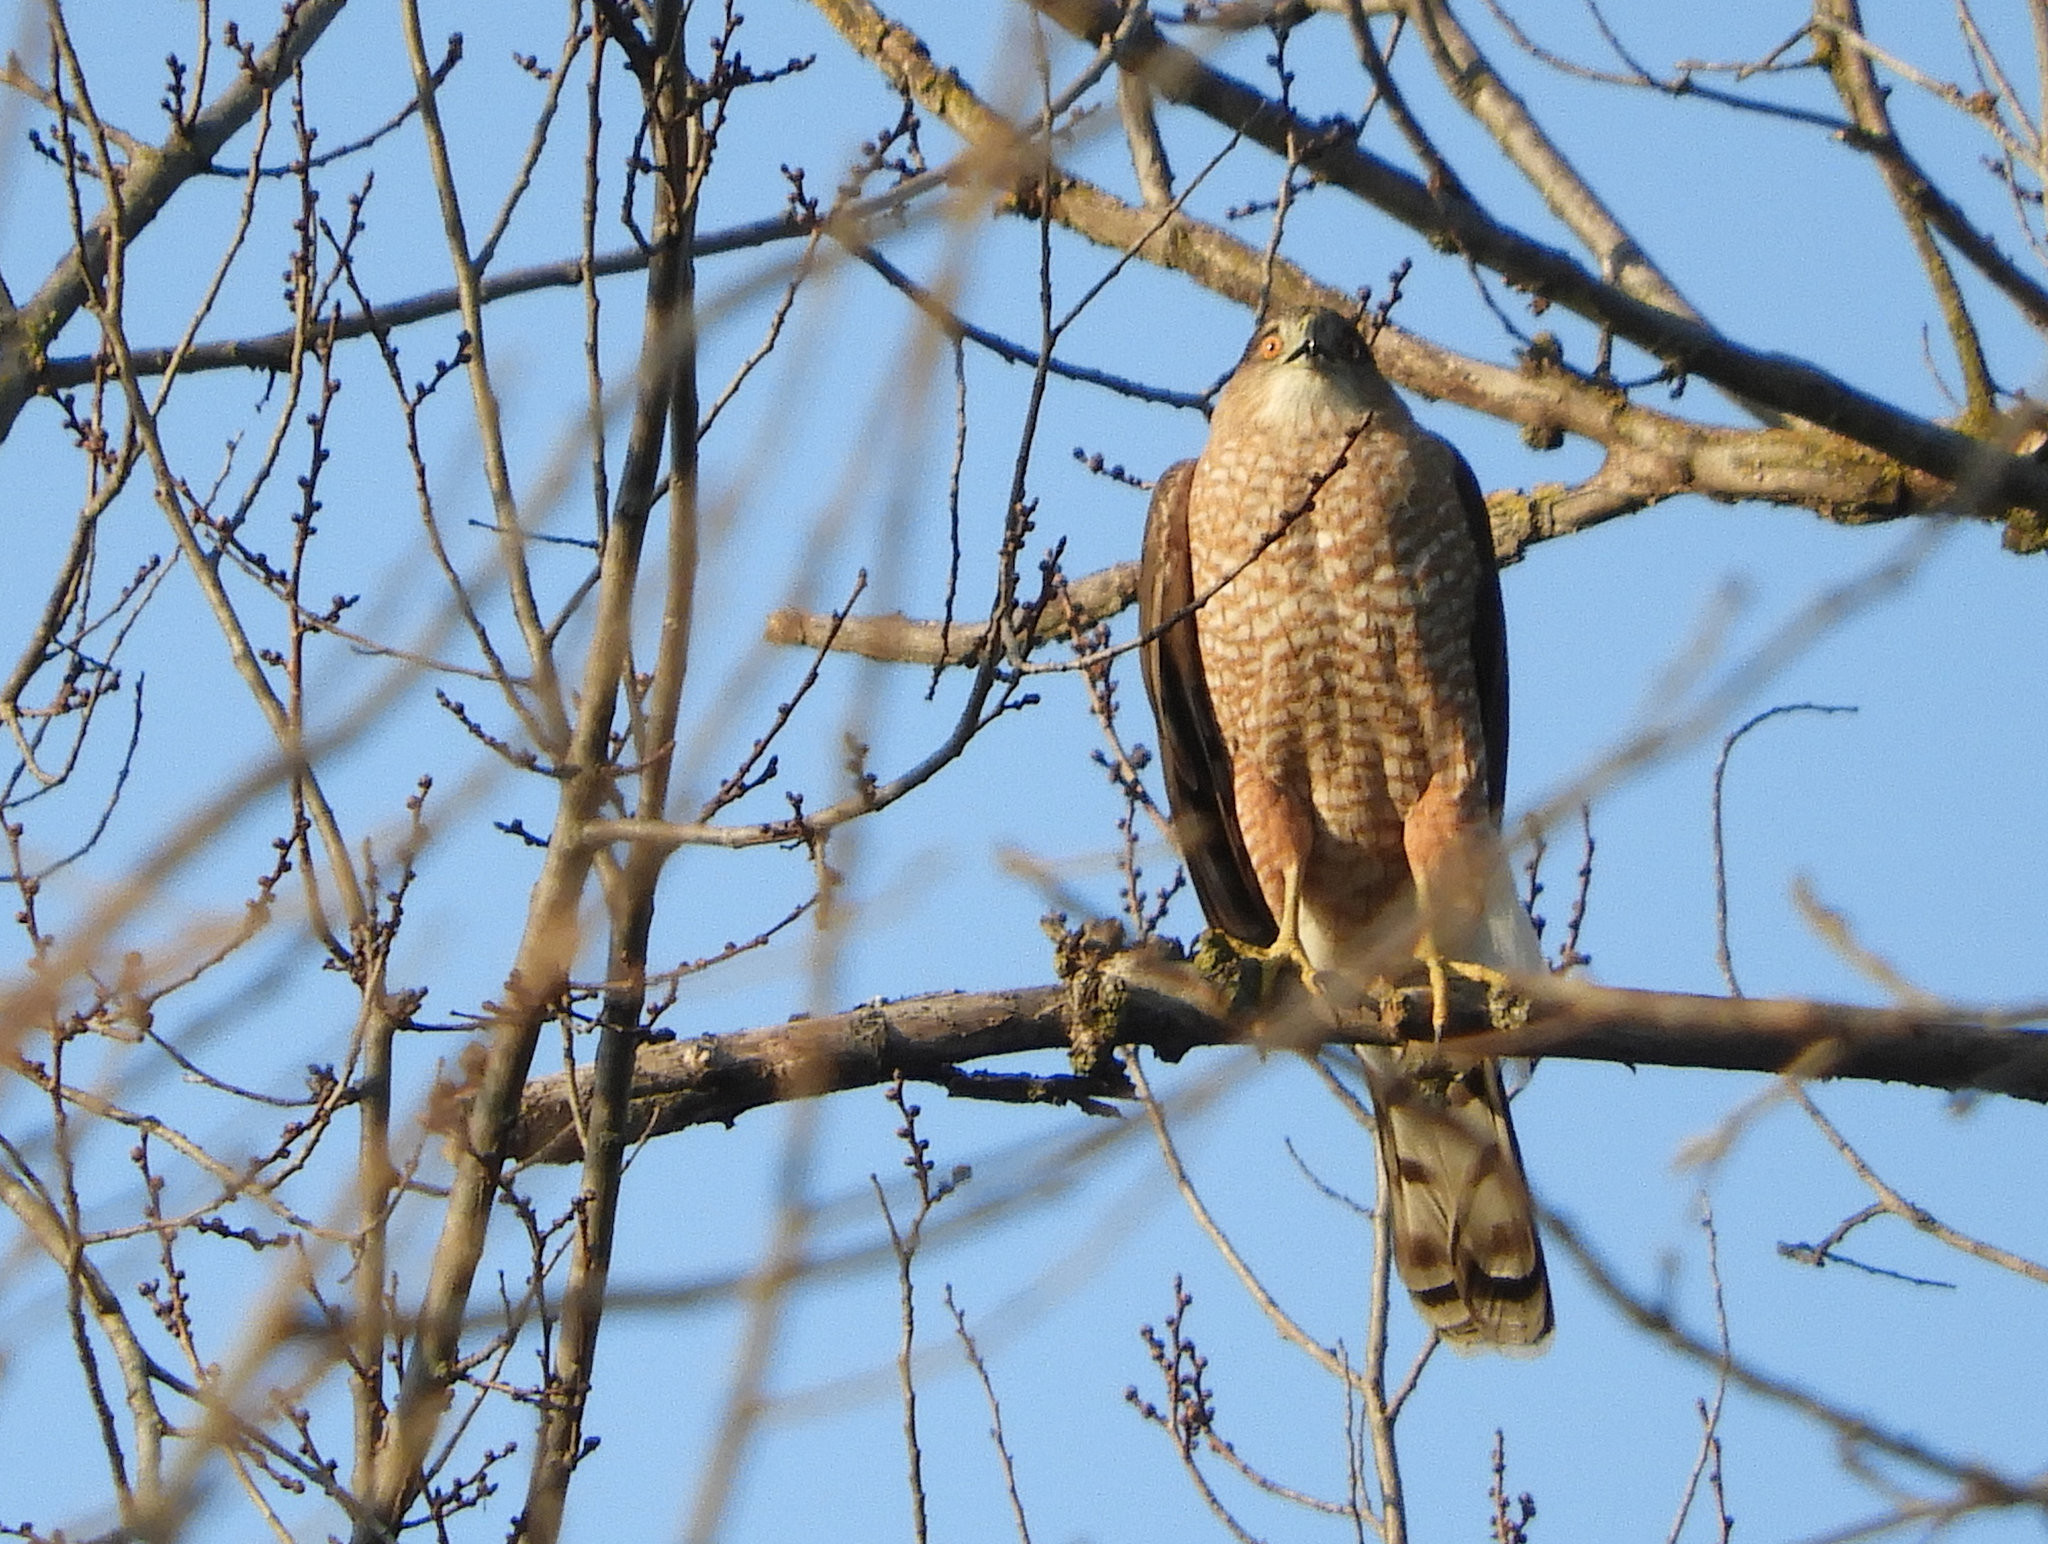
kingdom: Animalia
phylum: Chordata
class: Aves
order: Accipitriformes
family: Accipitridae
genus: Accipiter
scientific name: Accipiter cooperii
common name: Cooper's hawk
